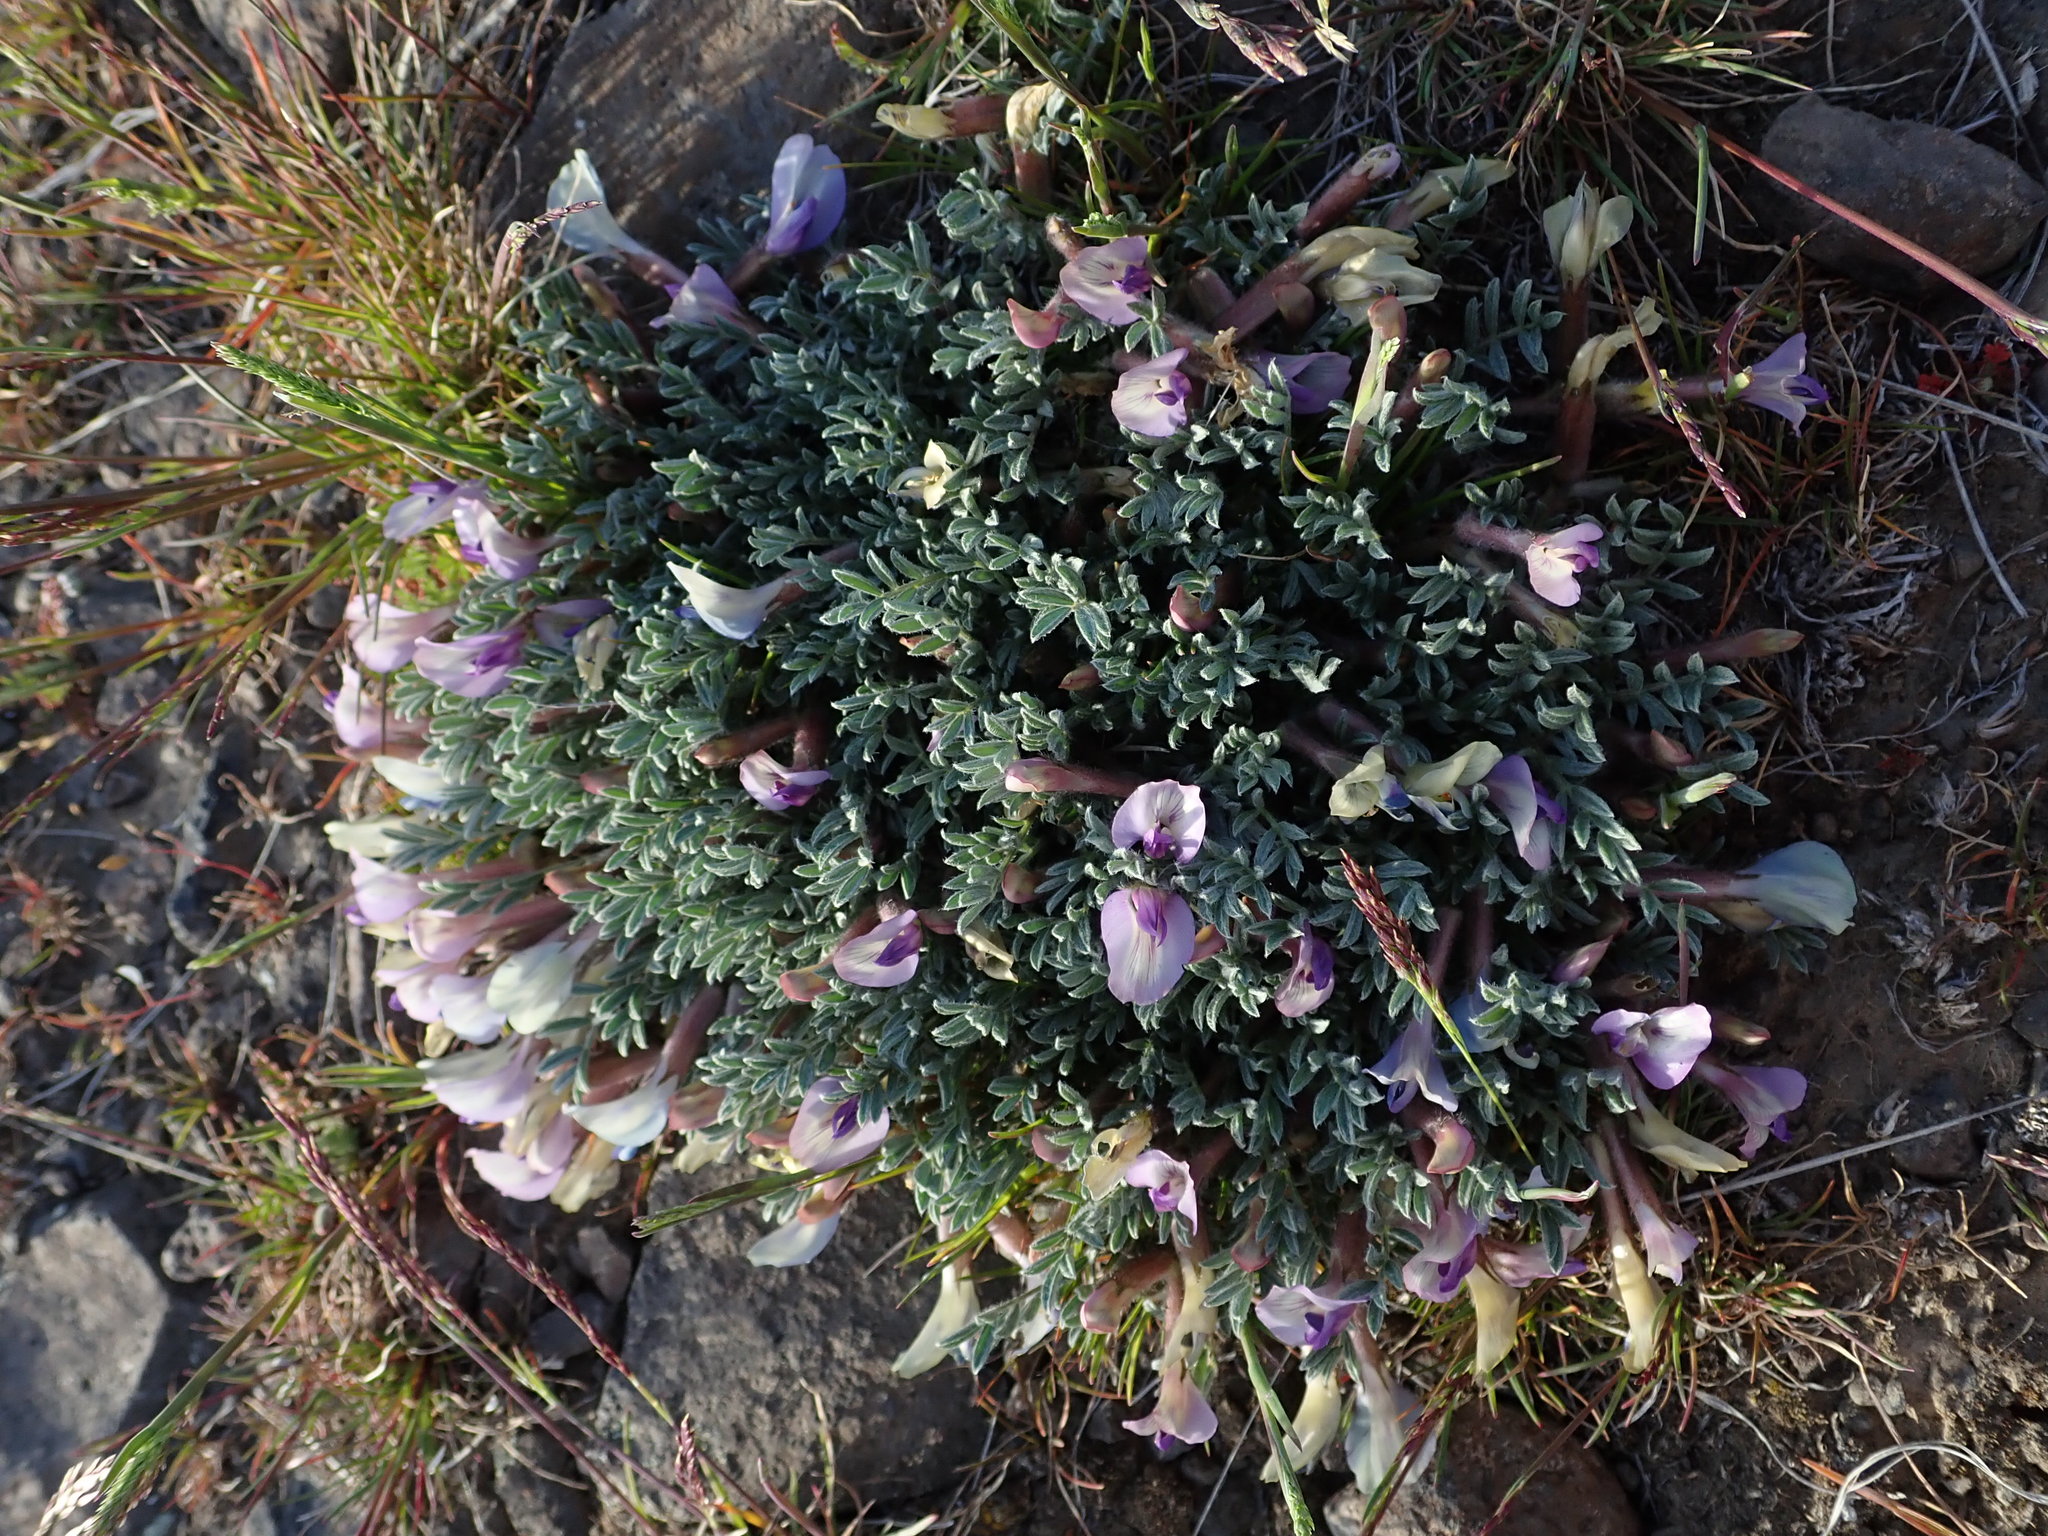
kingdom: Plantae
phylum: Tracheophyta
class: Magnoliopsida
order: Fabales
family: Fabaceae
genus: Astragalus
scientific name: Astragalus purshii
